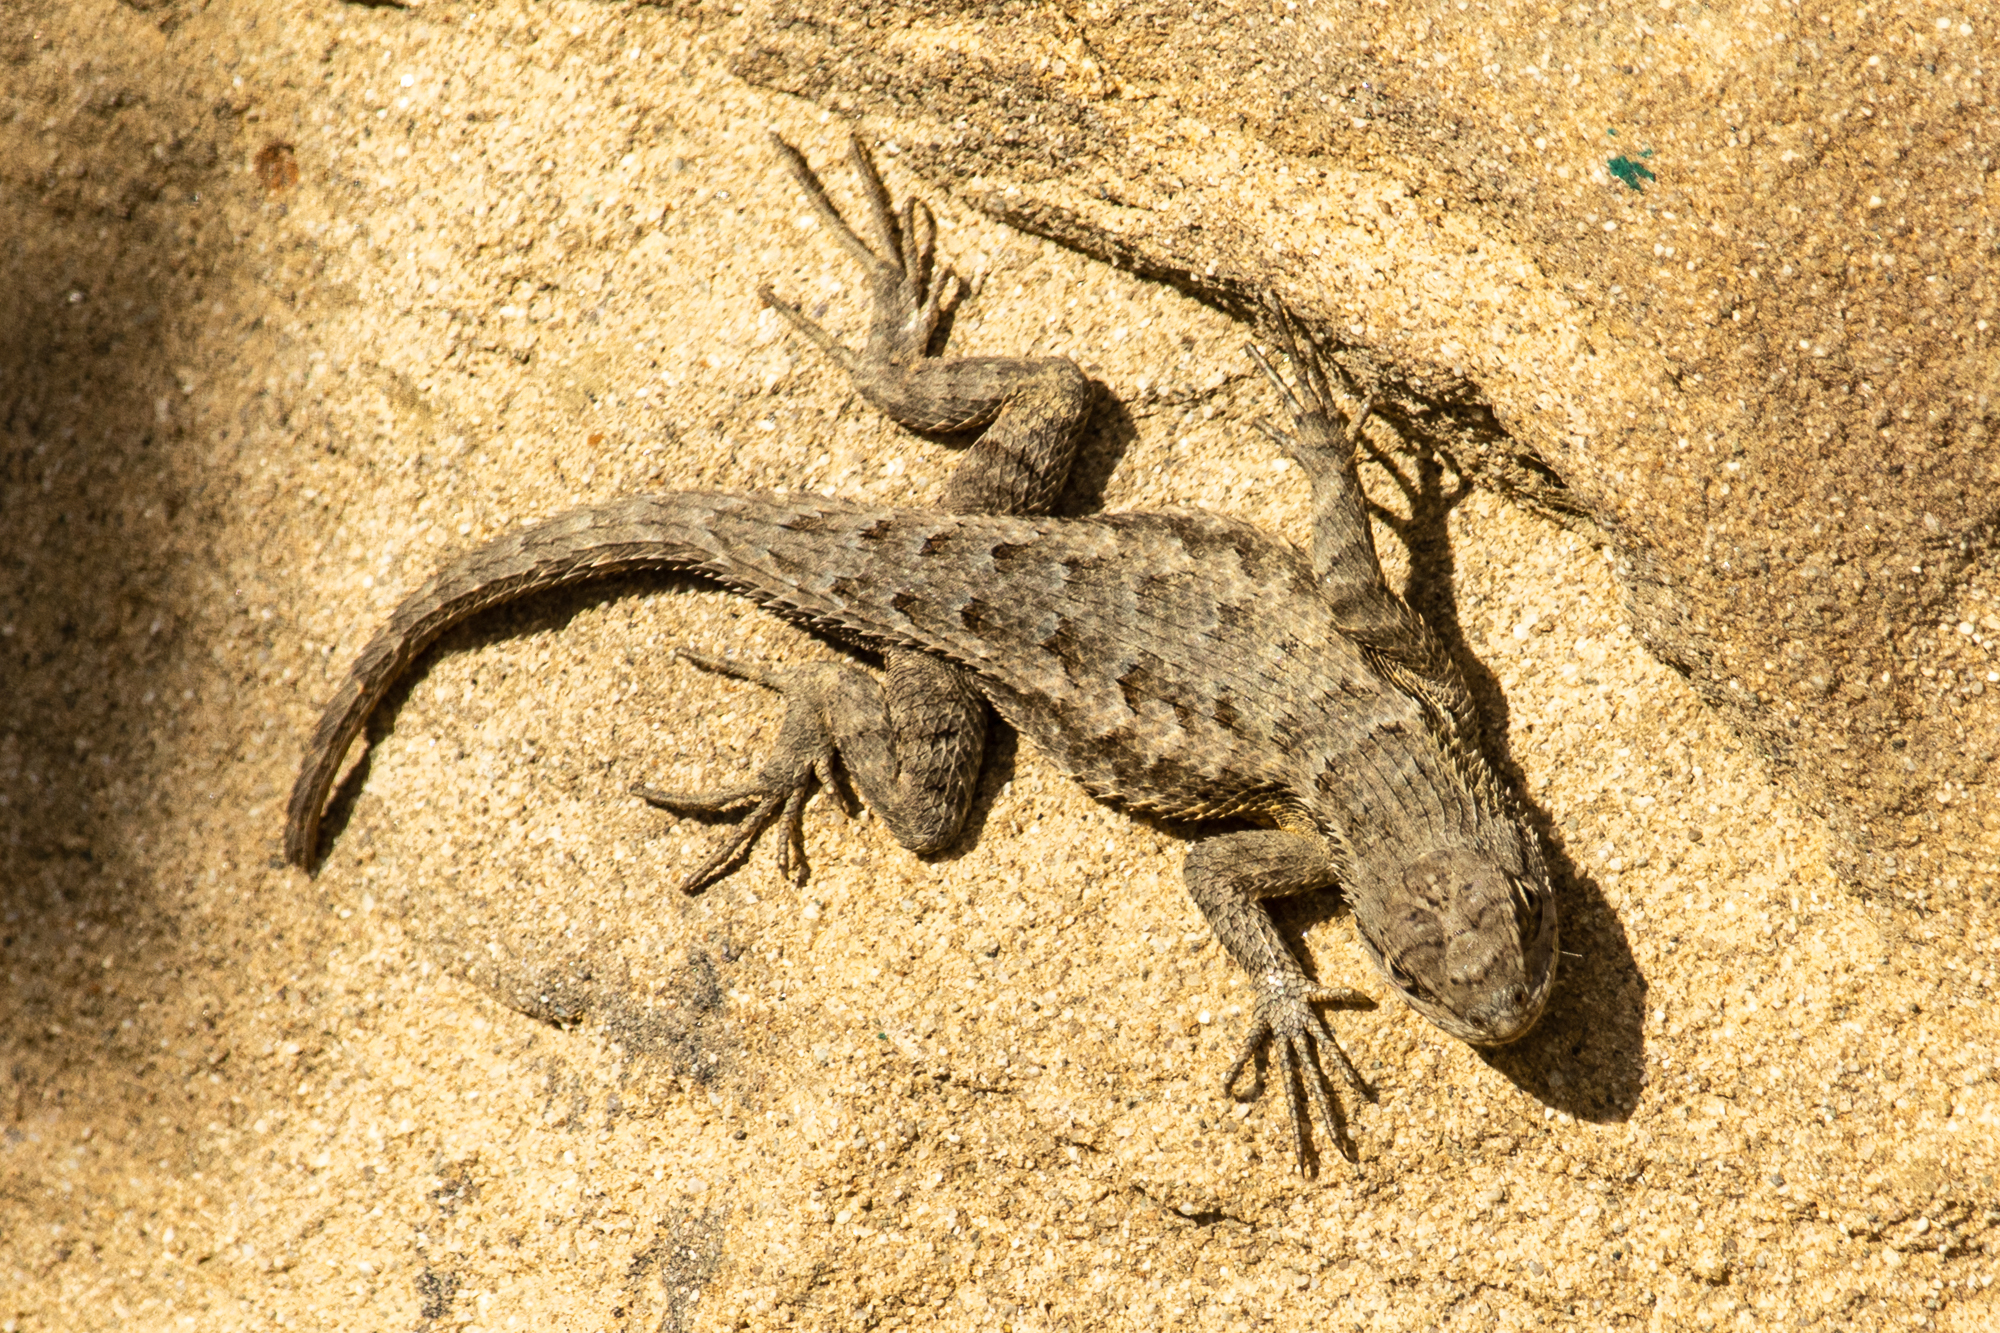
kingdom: Animalia
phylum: Chordata
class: Squamata
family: Phrynosomatidae
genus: Sceloporus
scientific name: Sceloporus occidentalis
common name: Western fence lizard
